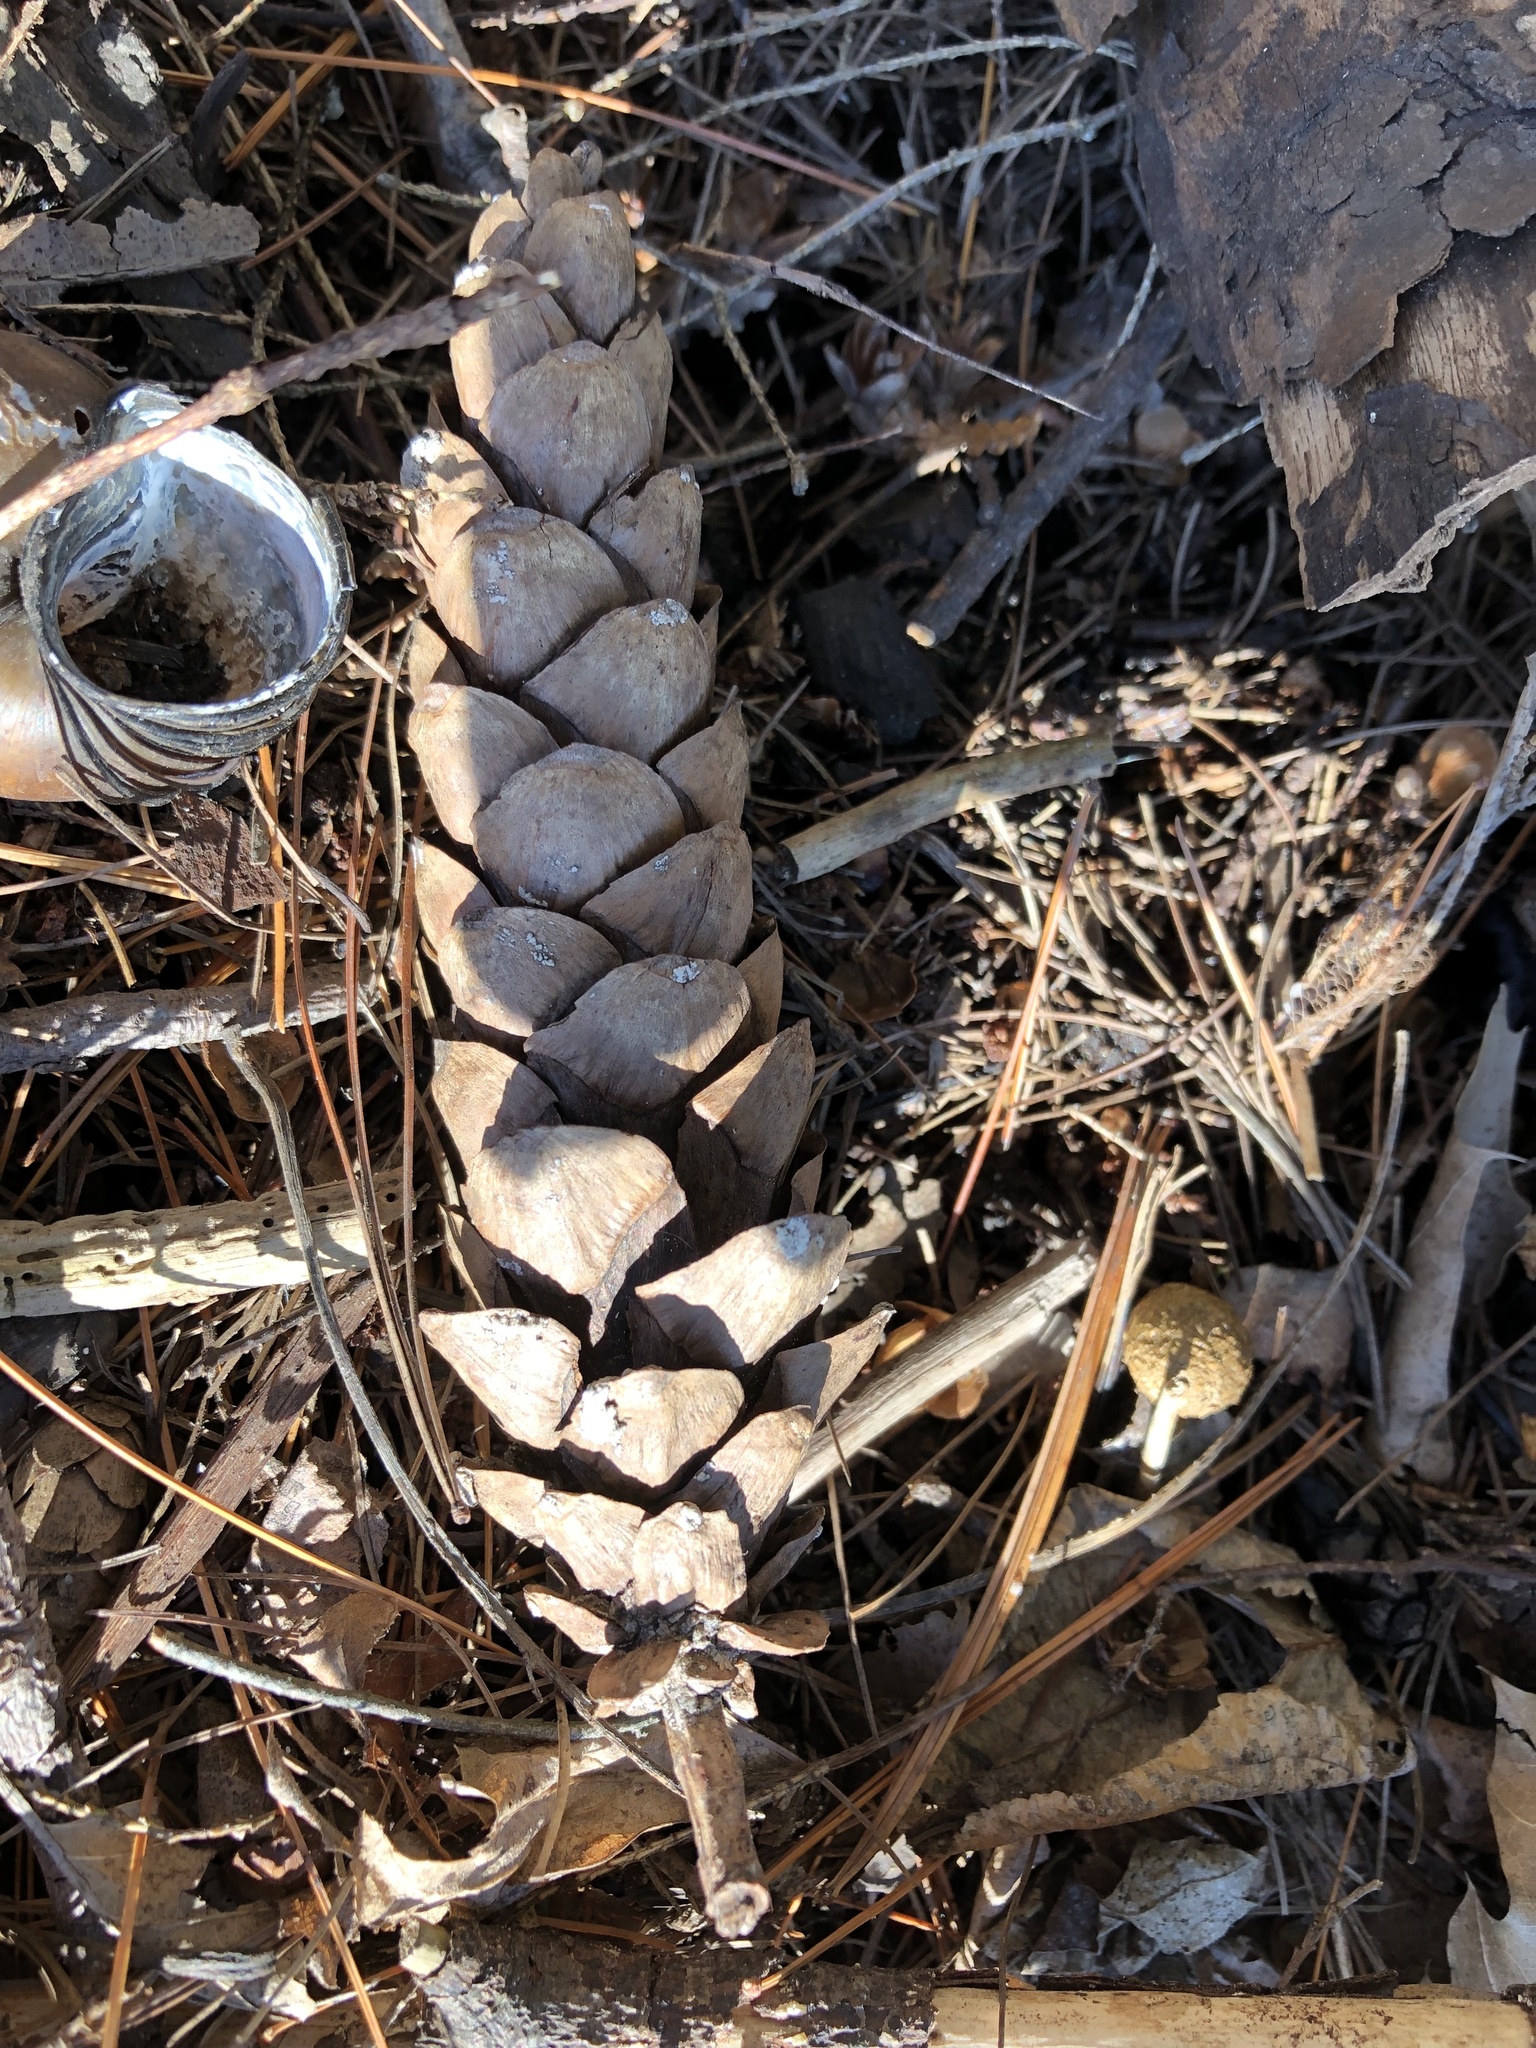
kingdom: Plantae
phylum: Tracheophyta
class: Pinopsida
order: Pinales
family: Pinaceae
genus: Pinus
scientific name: Pinus strobus
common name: Weymouth pine
